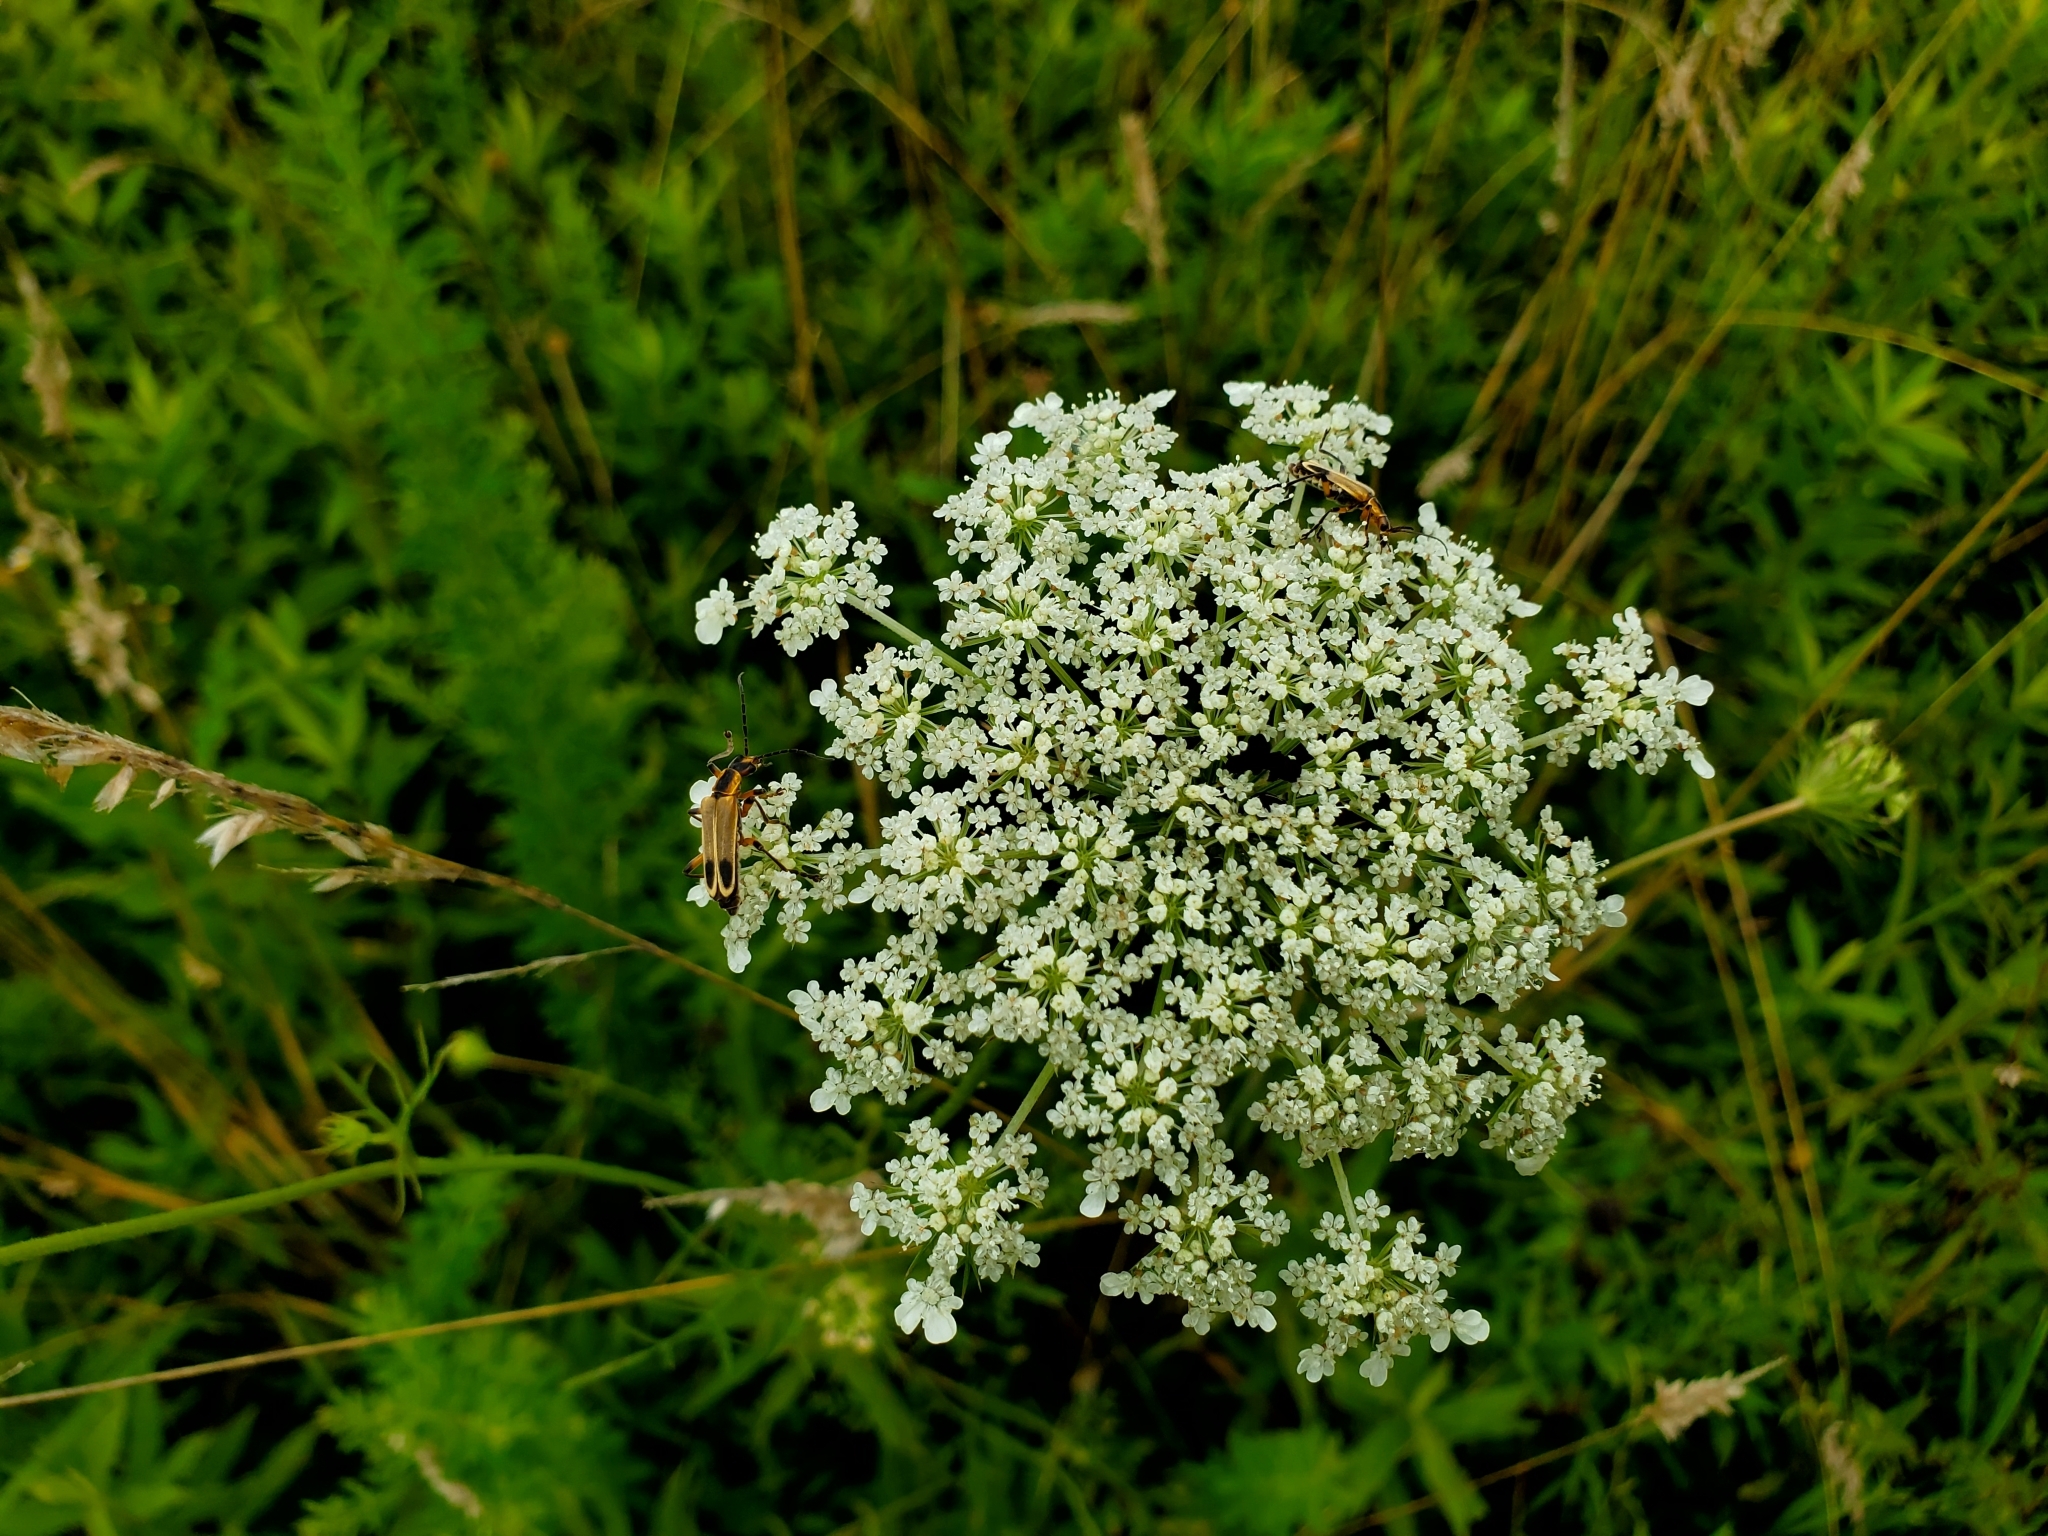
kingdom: Animalia
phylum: Arthropoda
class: Insecta
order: Coleoptera
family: Cantharidae
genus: Chauliognathus
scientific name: Chauliognathus marginatus
